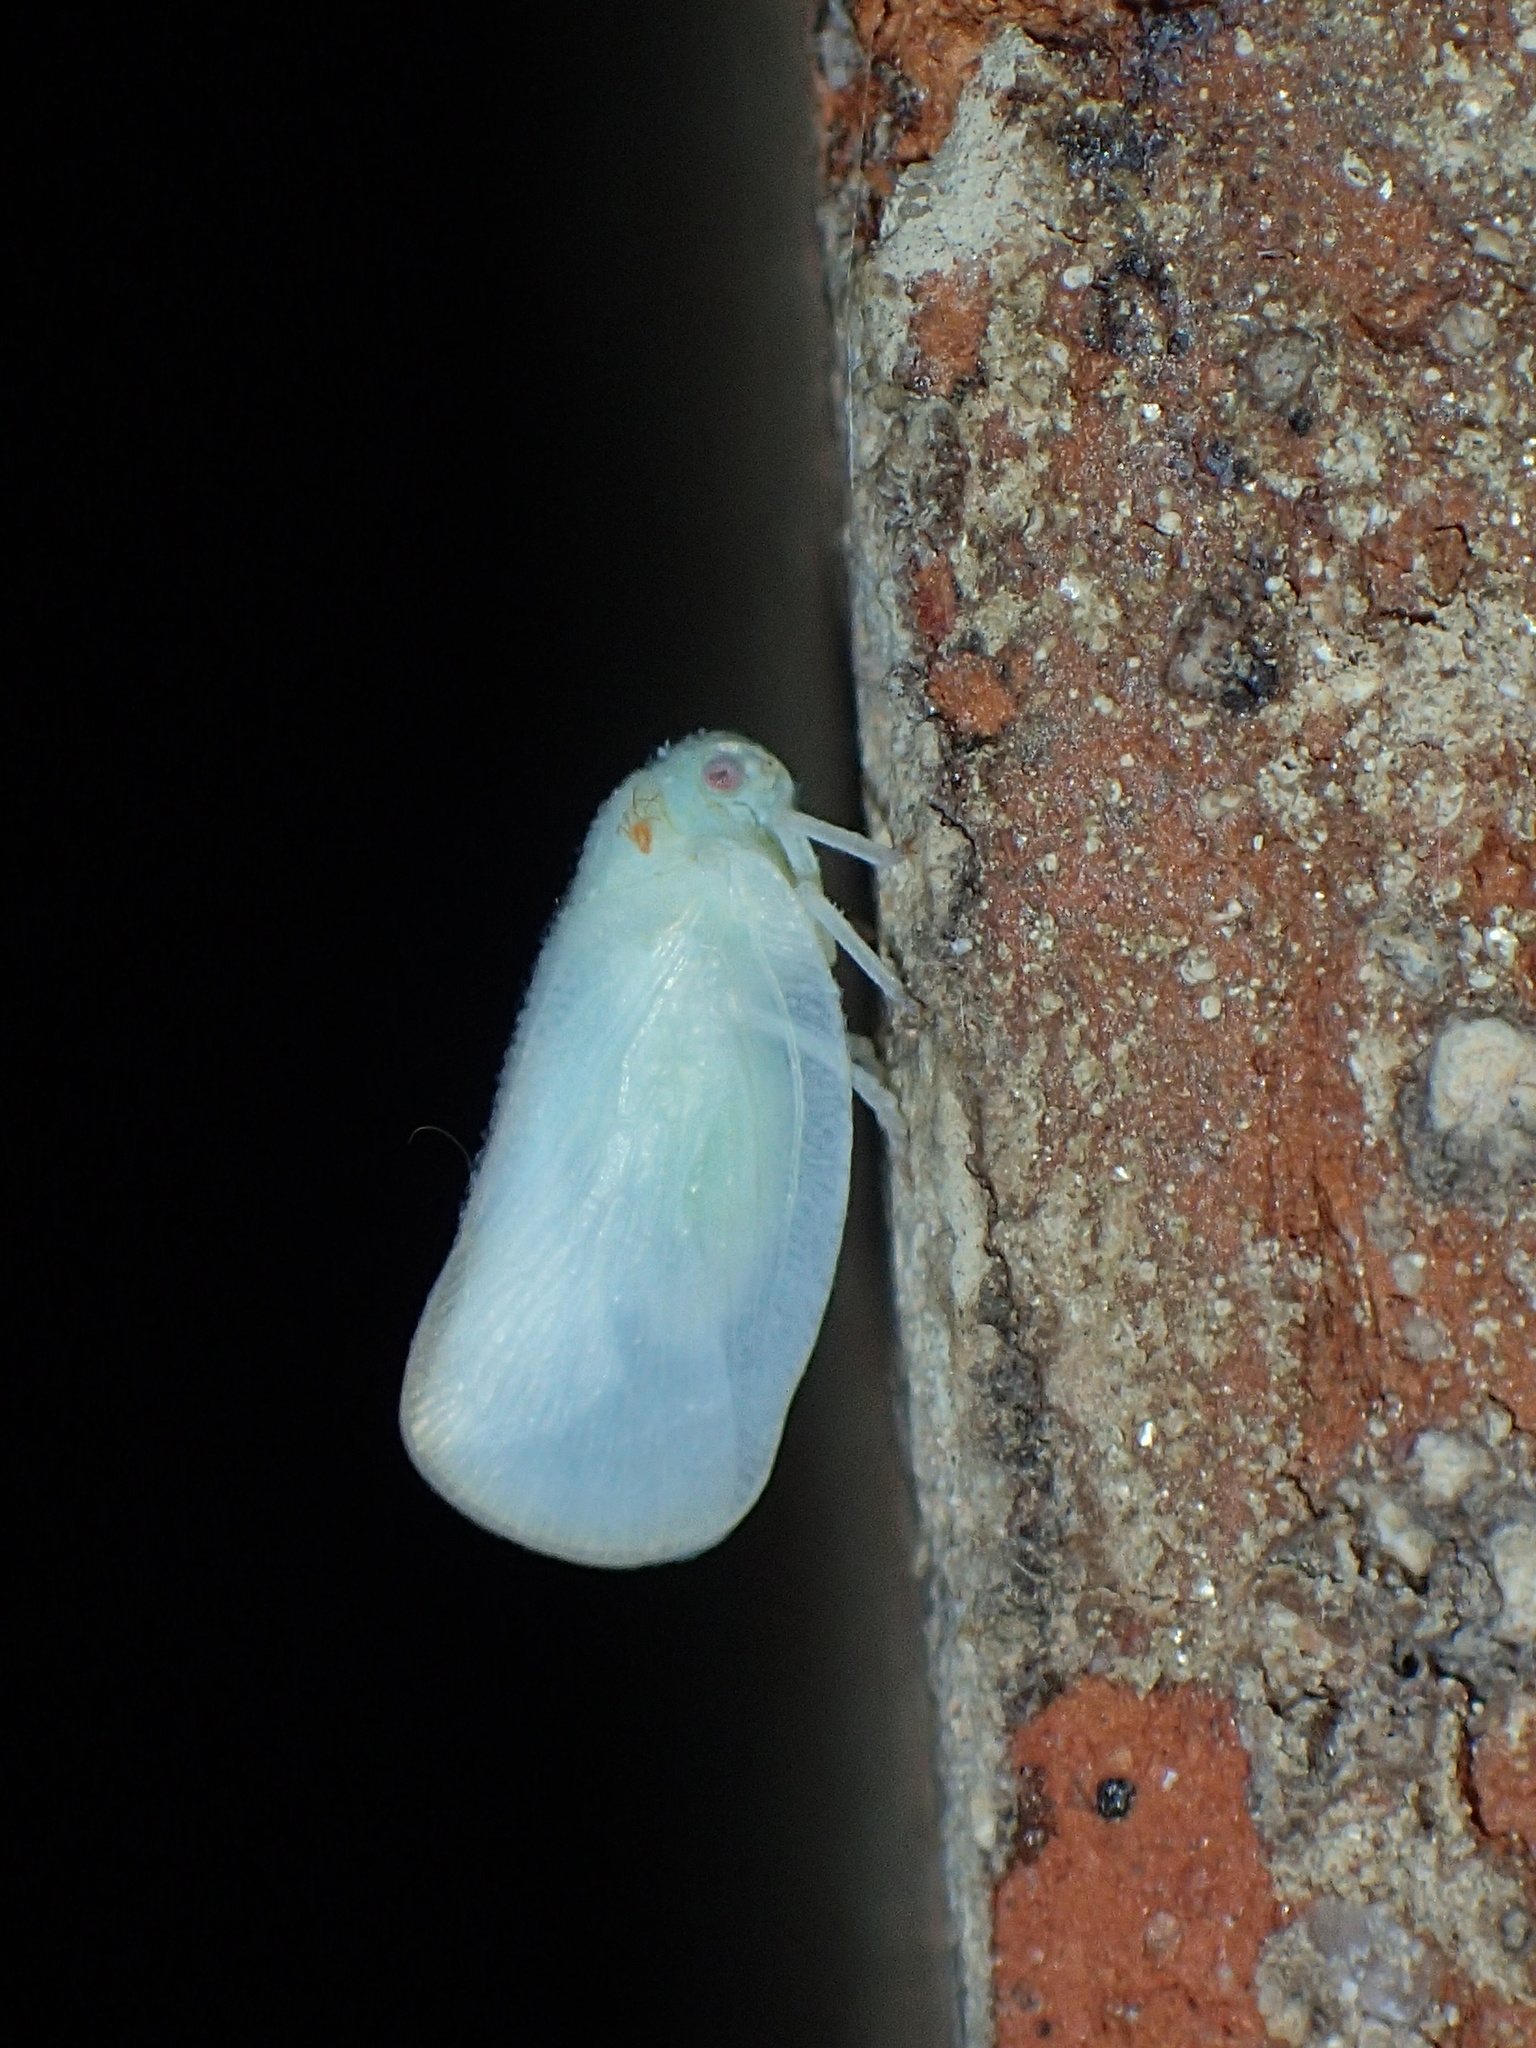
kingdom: Animalia
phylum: Arthropoda
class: Insecta
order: Hemiptera
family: Flatidae
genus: Ormenoides
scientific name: Ormenoides venusta
